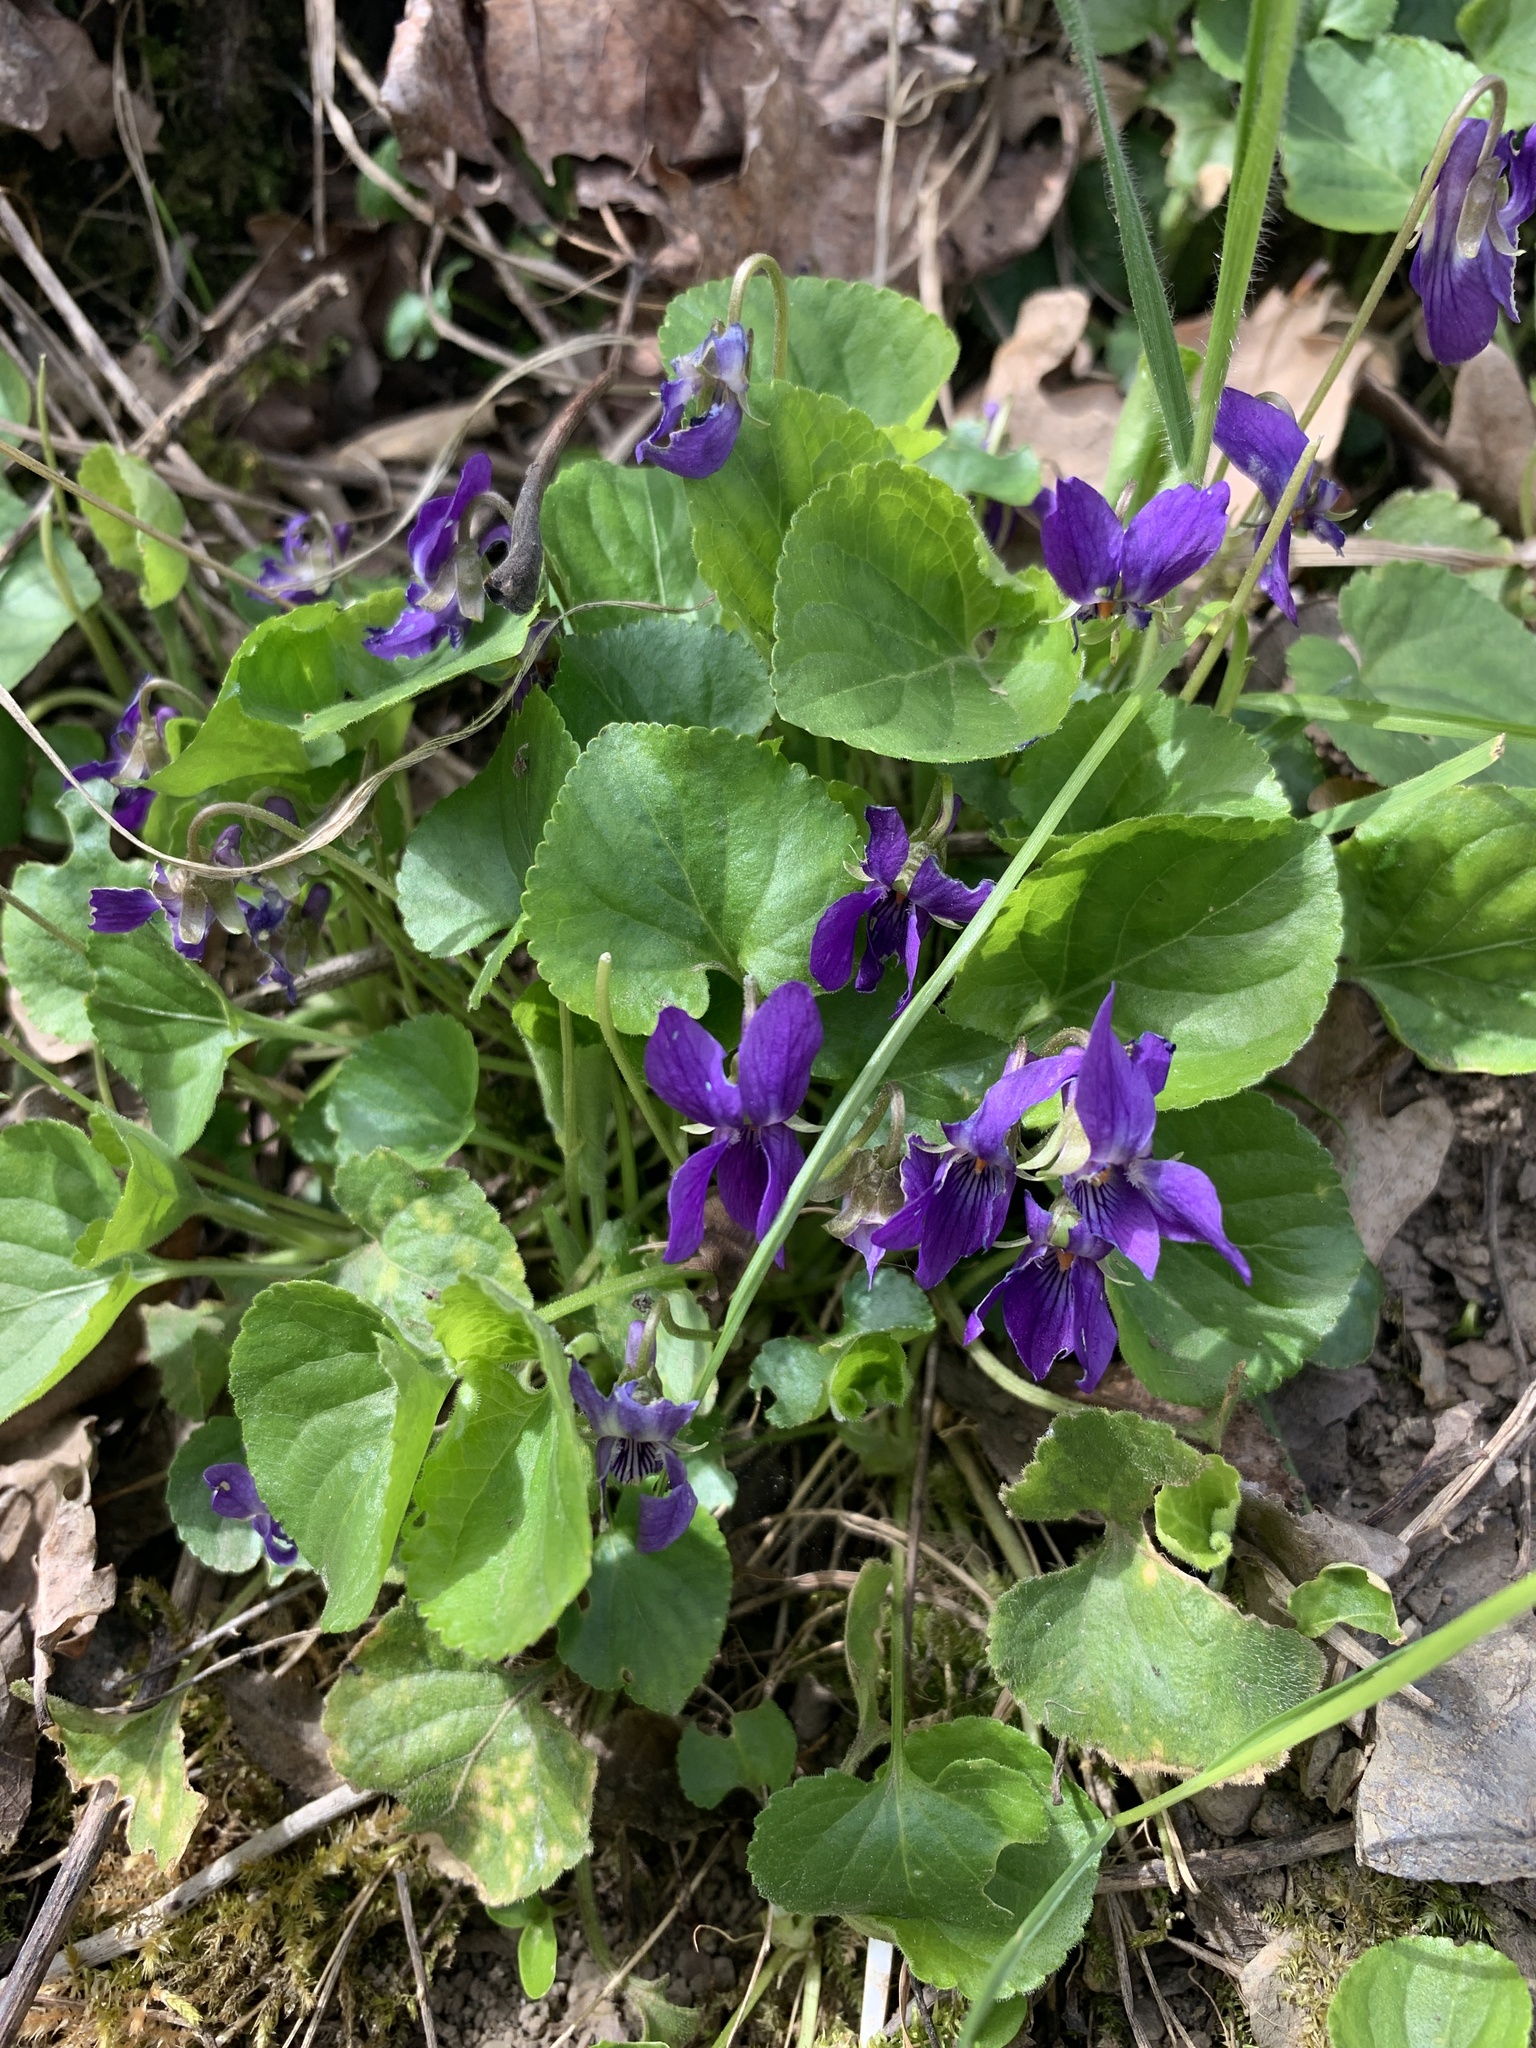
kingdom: Plantae
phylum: Tracheophyta
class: Magnoliopsida
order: Malpighiales
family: Violaceae
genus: Viola
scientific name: Viola odorata
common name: Sweet violet
